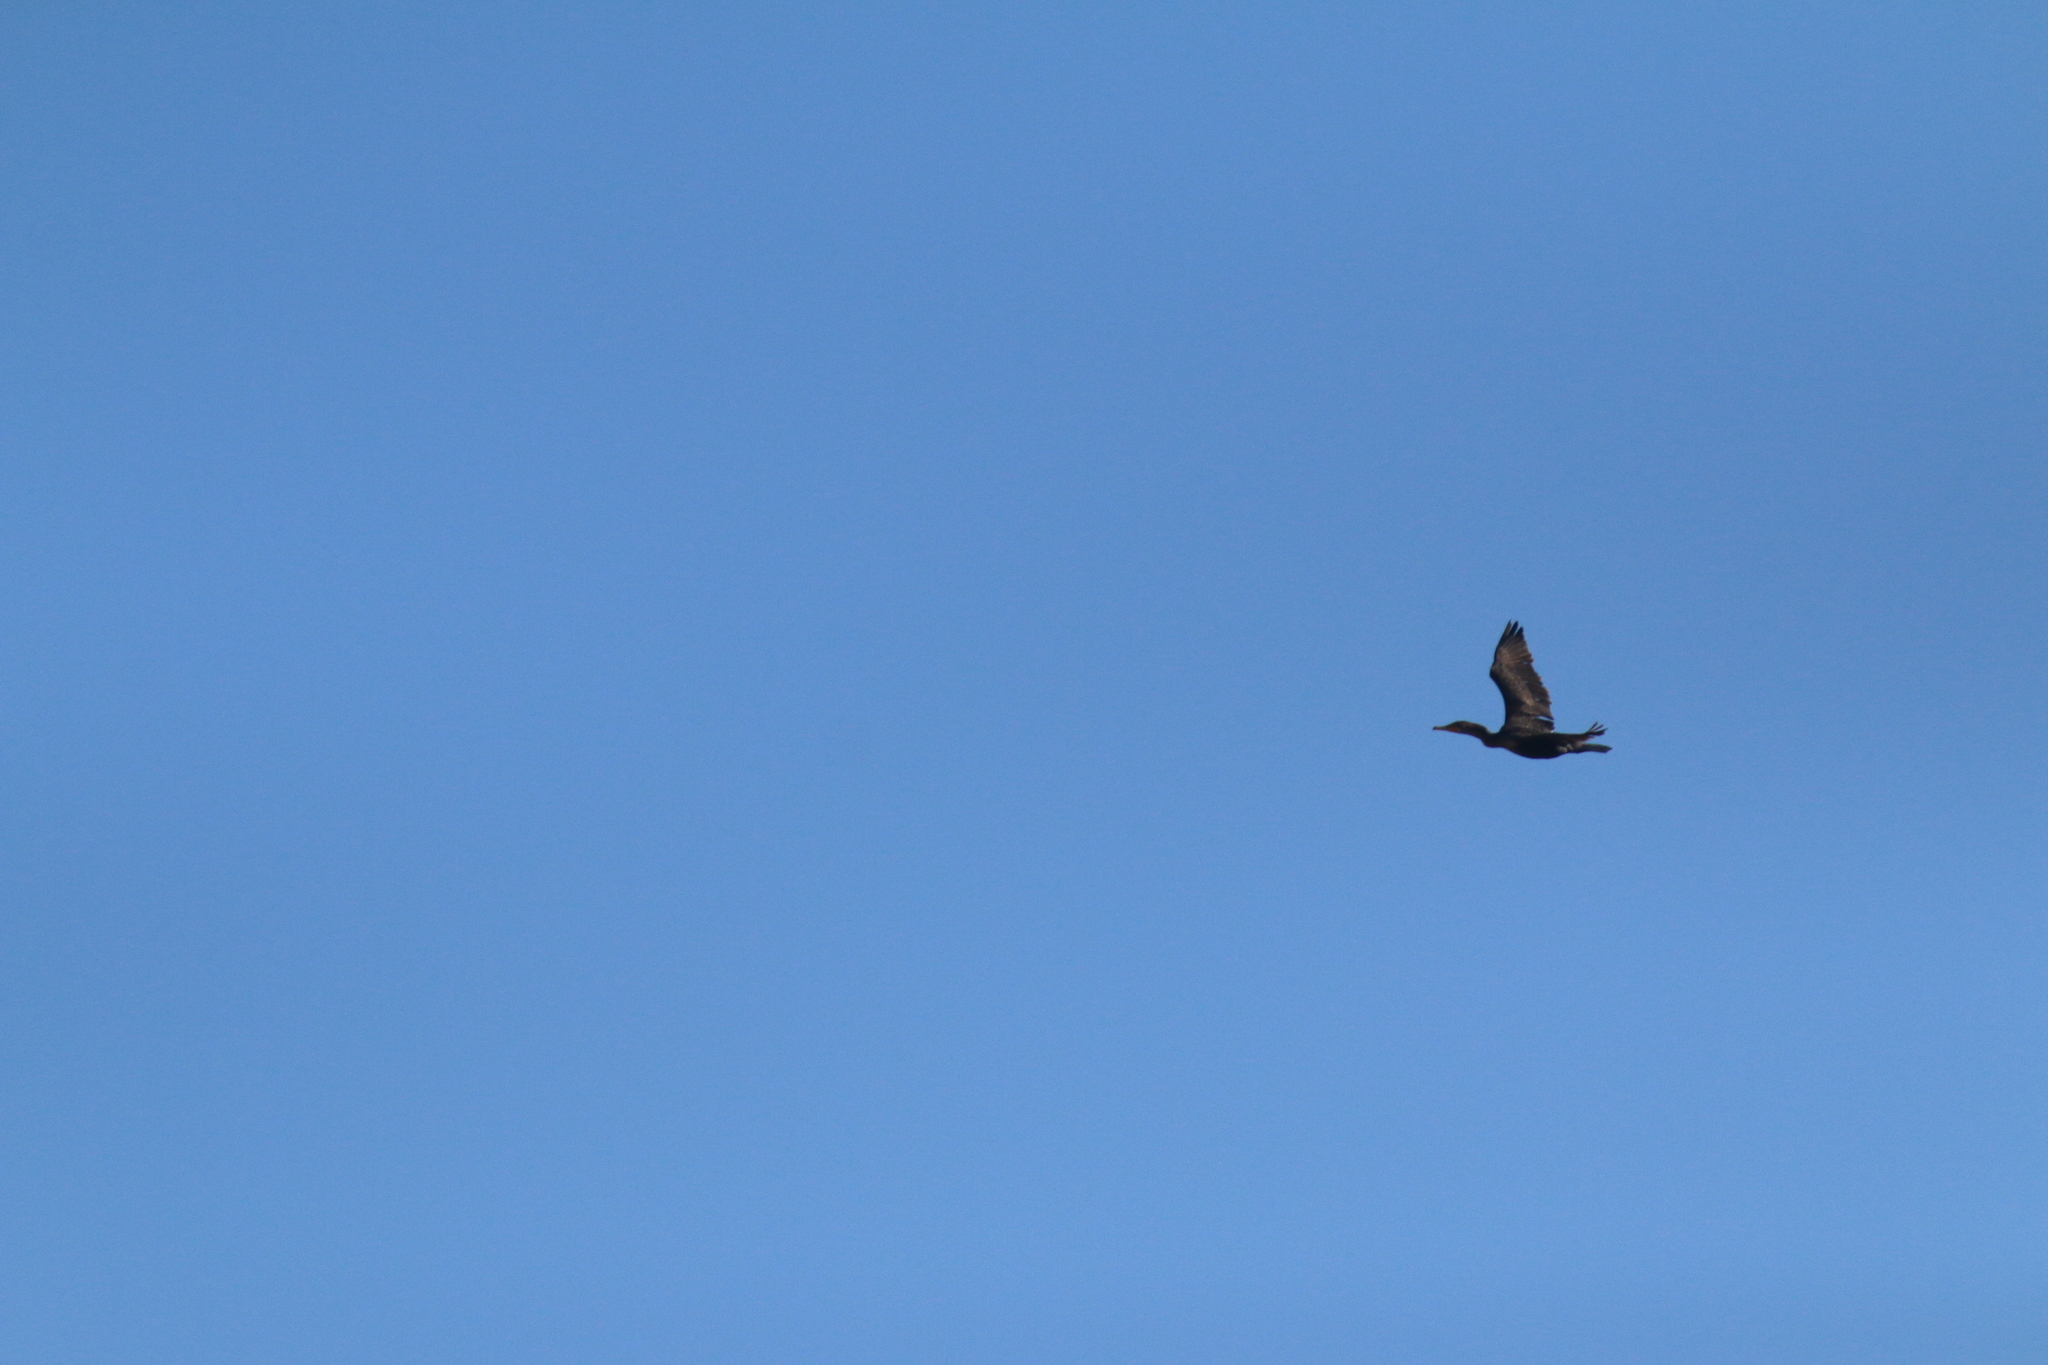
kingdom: Animalia
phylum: Chordata
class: Aves
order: Suliformes
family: Phalacrocoracidae
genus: Phalacrocorax
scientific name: Phalacrocorax auritus
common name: Double-crested cormorant
